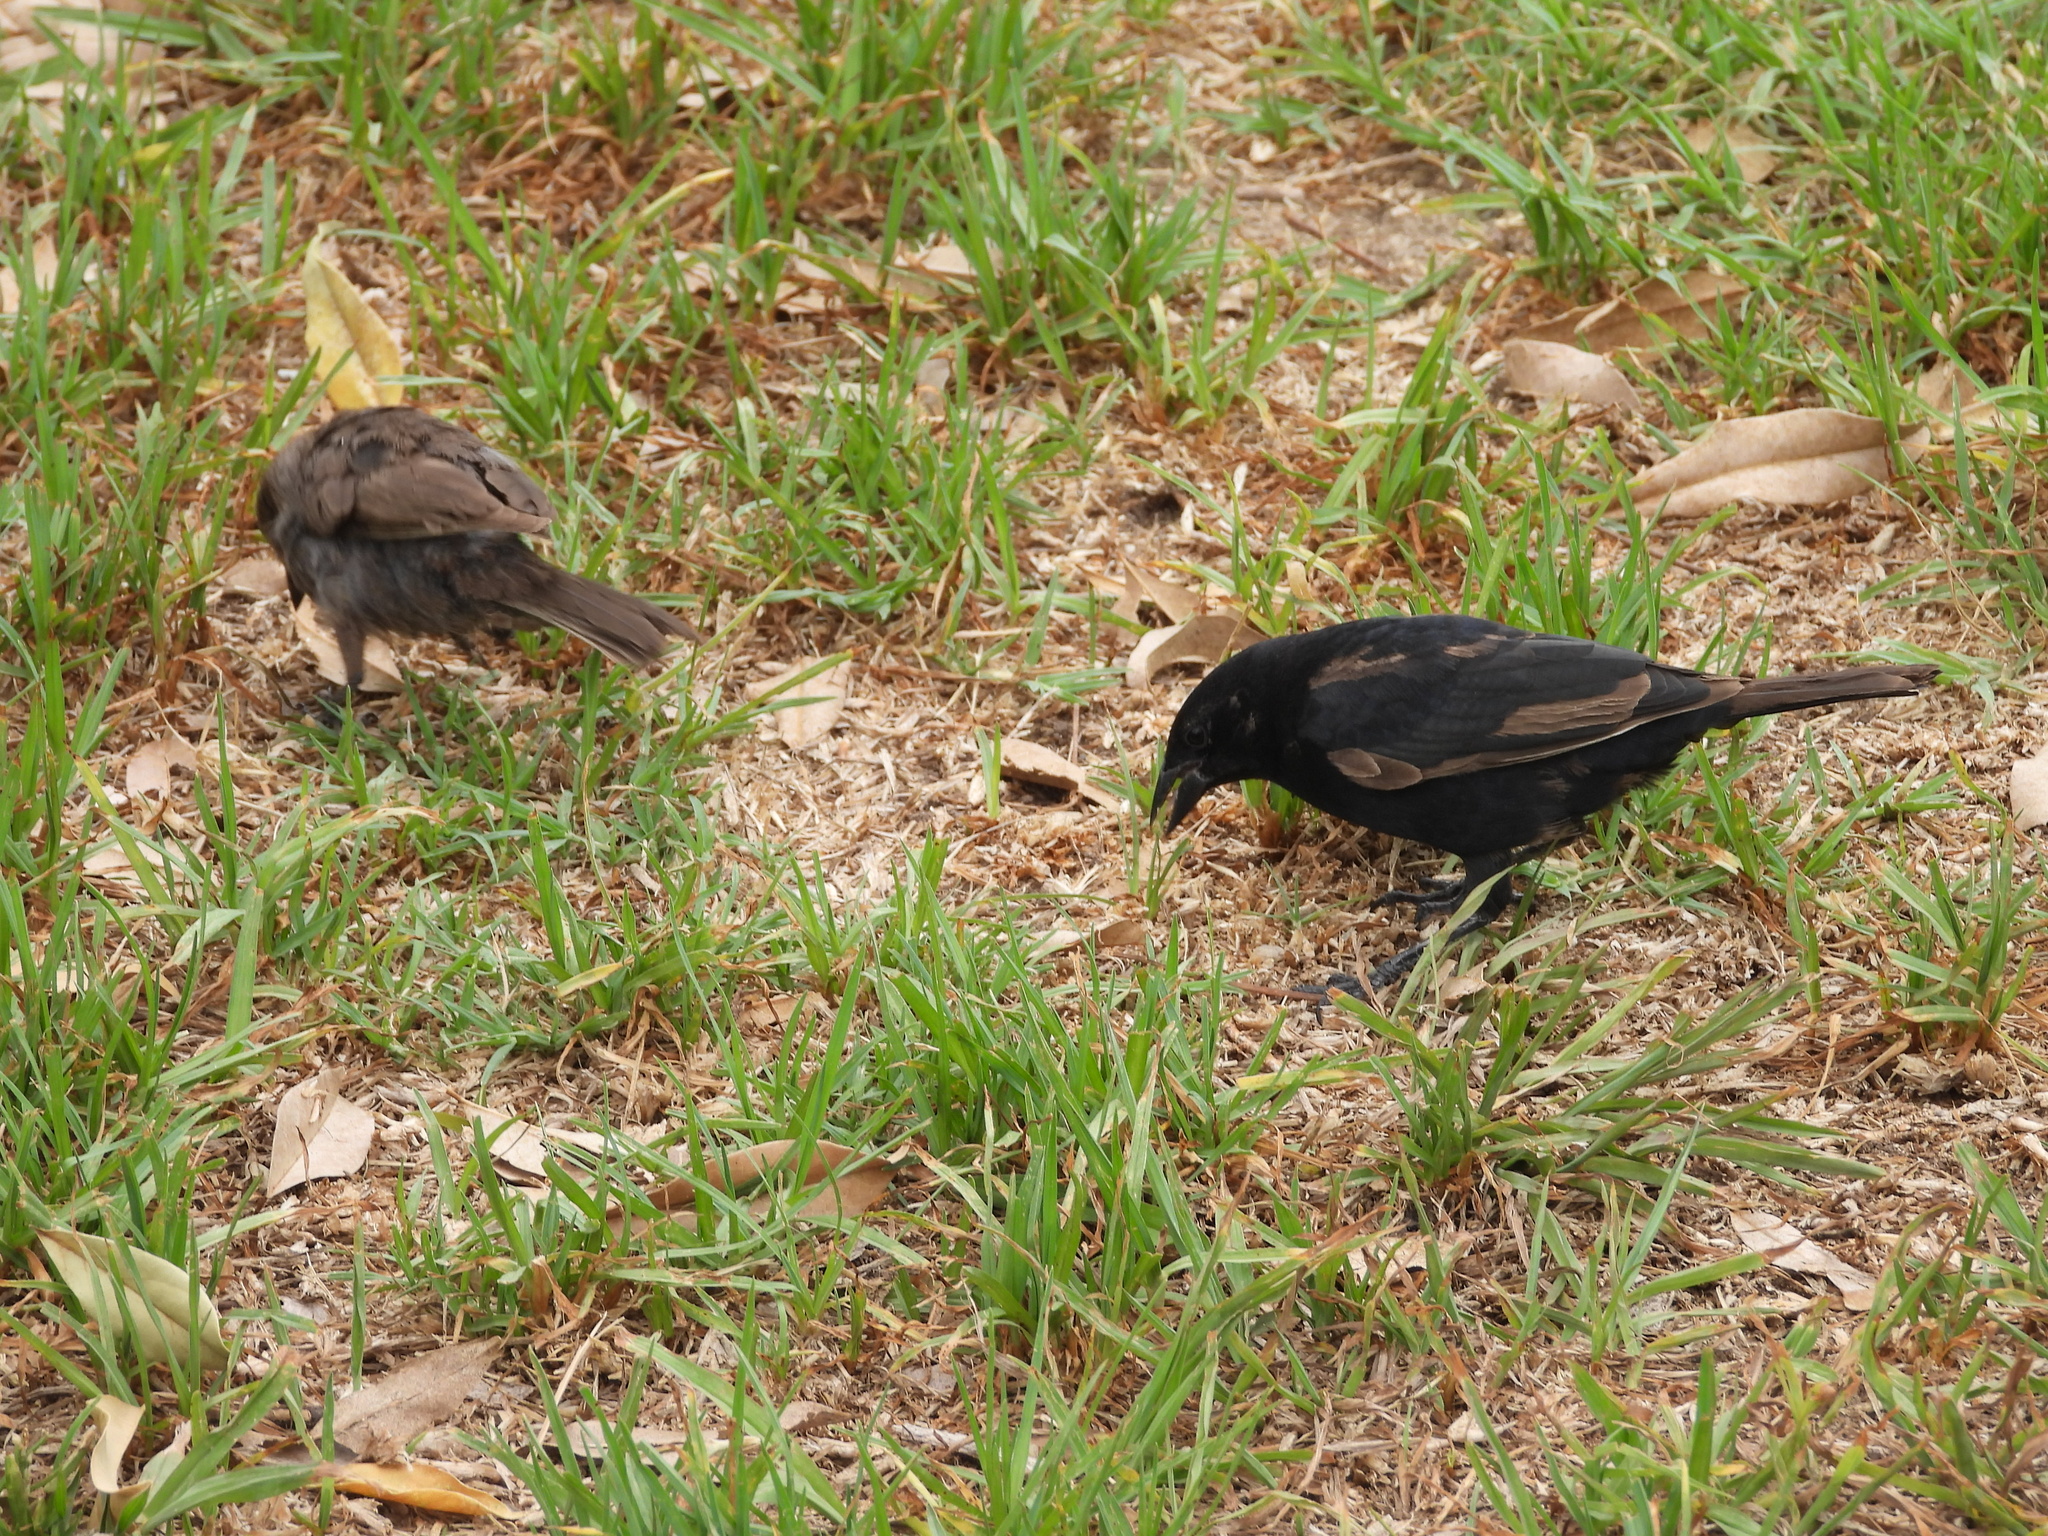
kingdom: Animalia
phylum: Chordata
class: Aves
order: Passeriformes
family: Icteridae
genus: Molothrus
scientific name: Molothrus bonariensis
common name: Shiny cowbird
